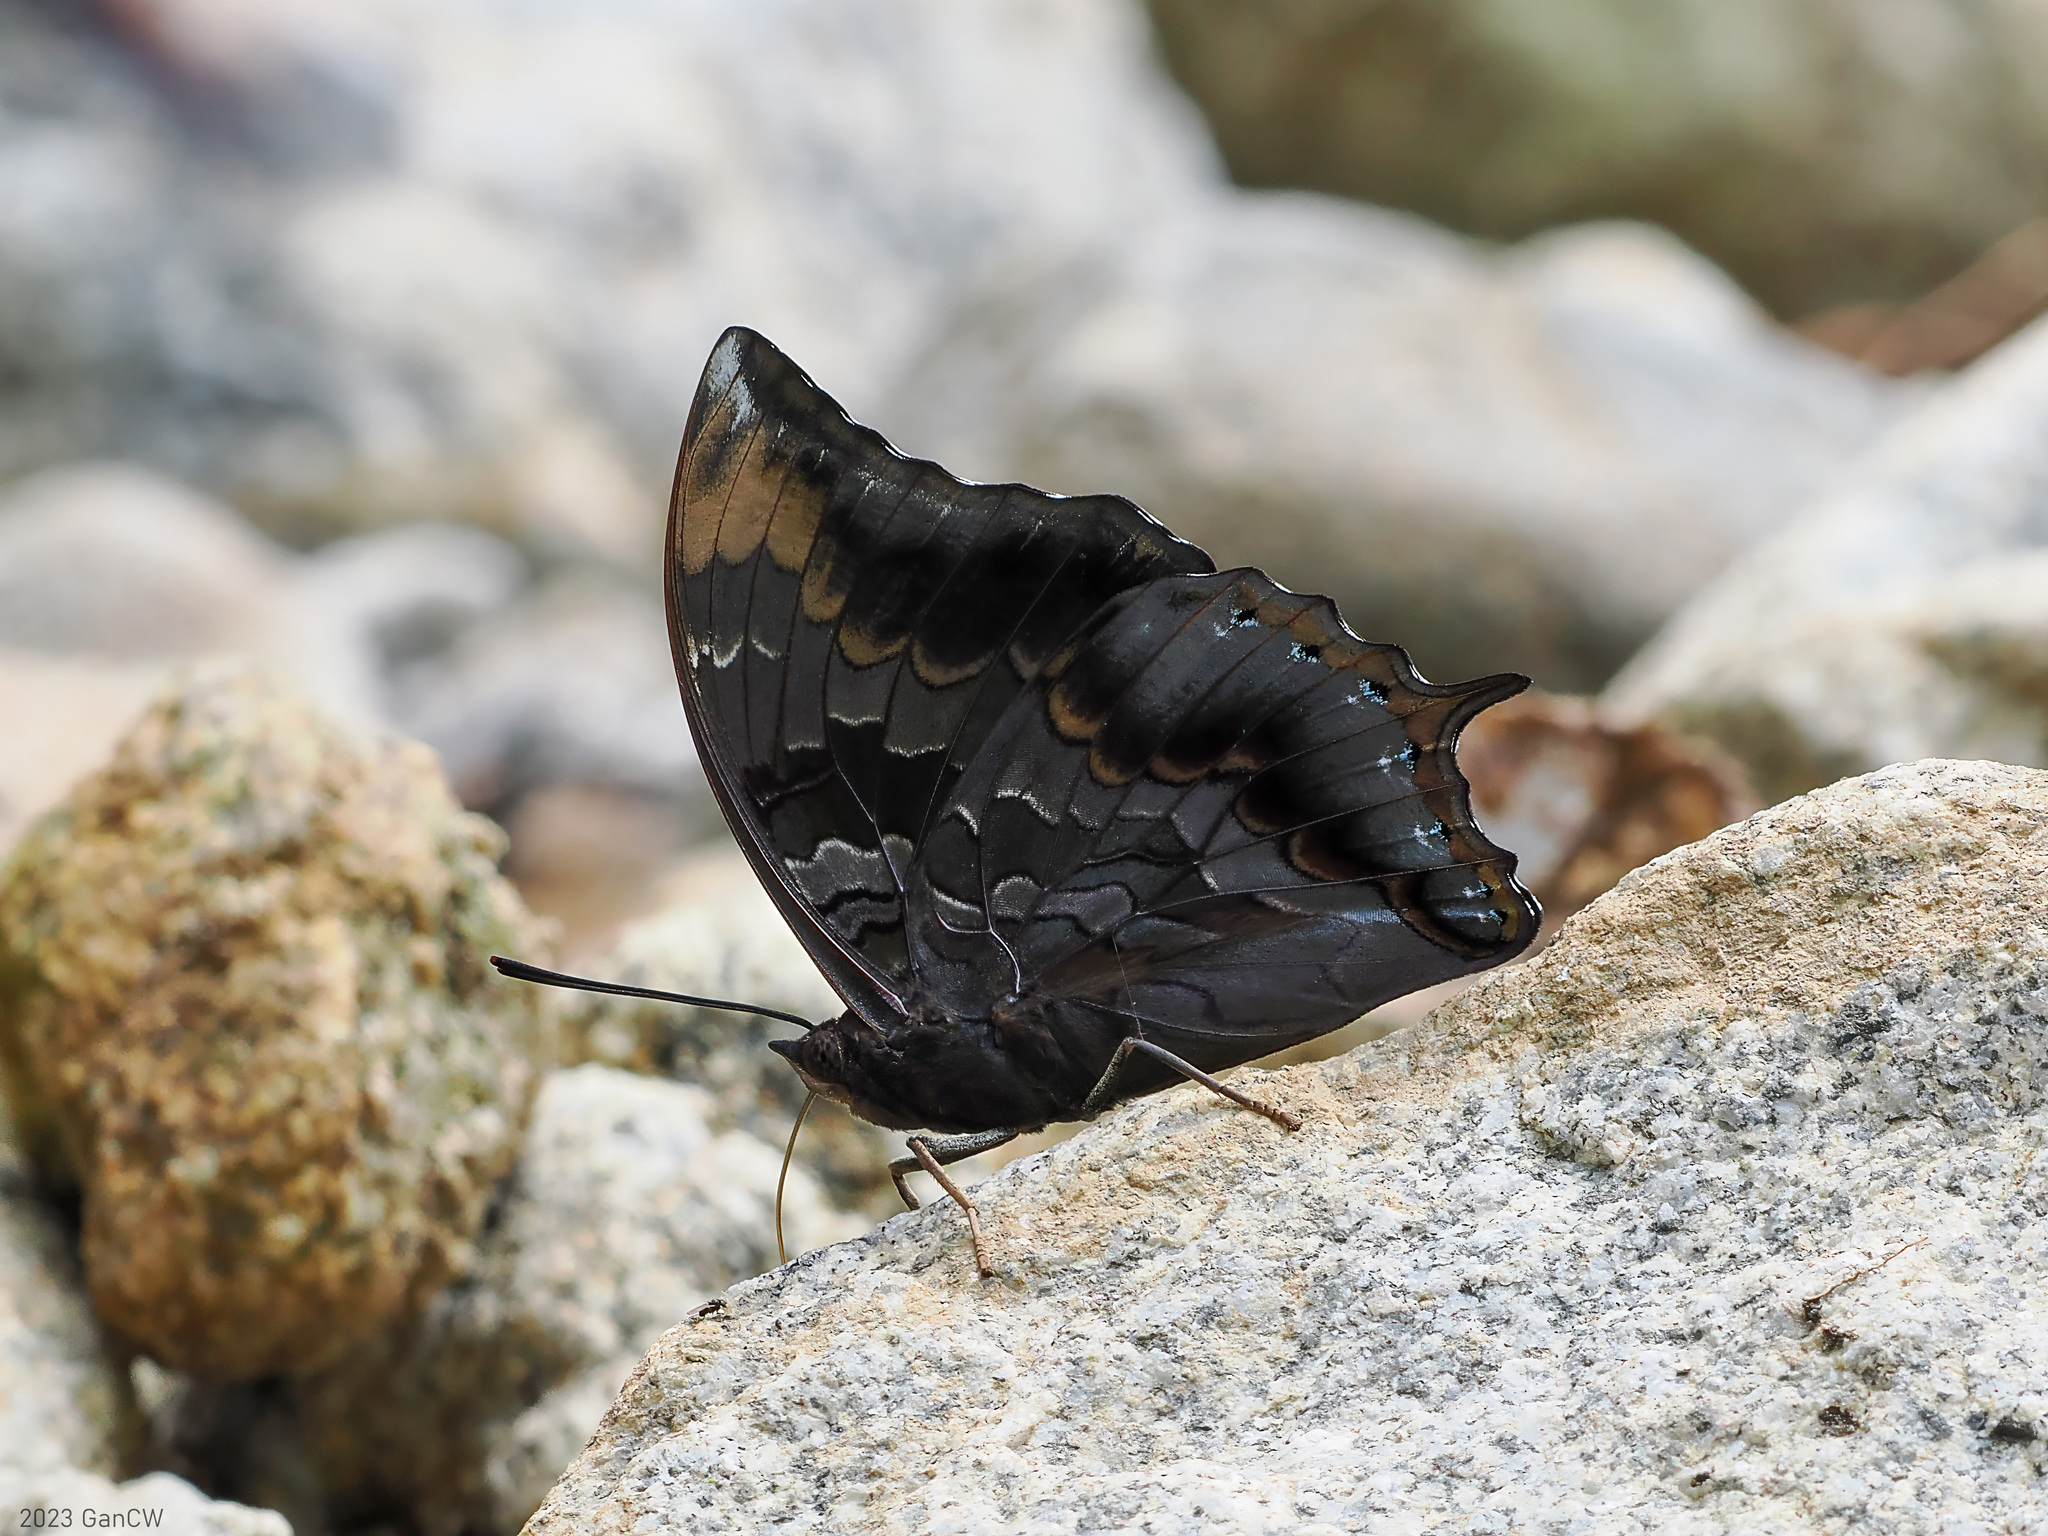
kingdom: Animalia
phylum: Arthropoda
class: Insecta
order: Lepidoptera
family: Nymphalidae
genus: Charaxes
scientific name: Charaxes mars
